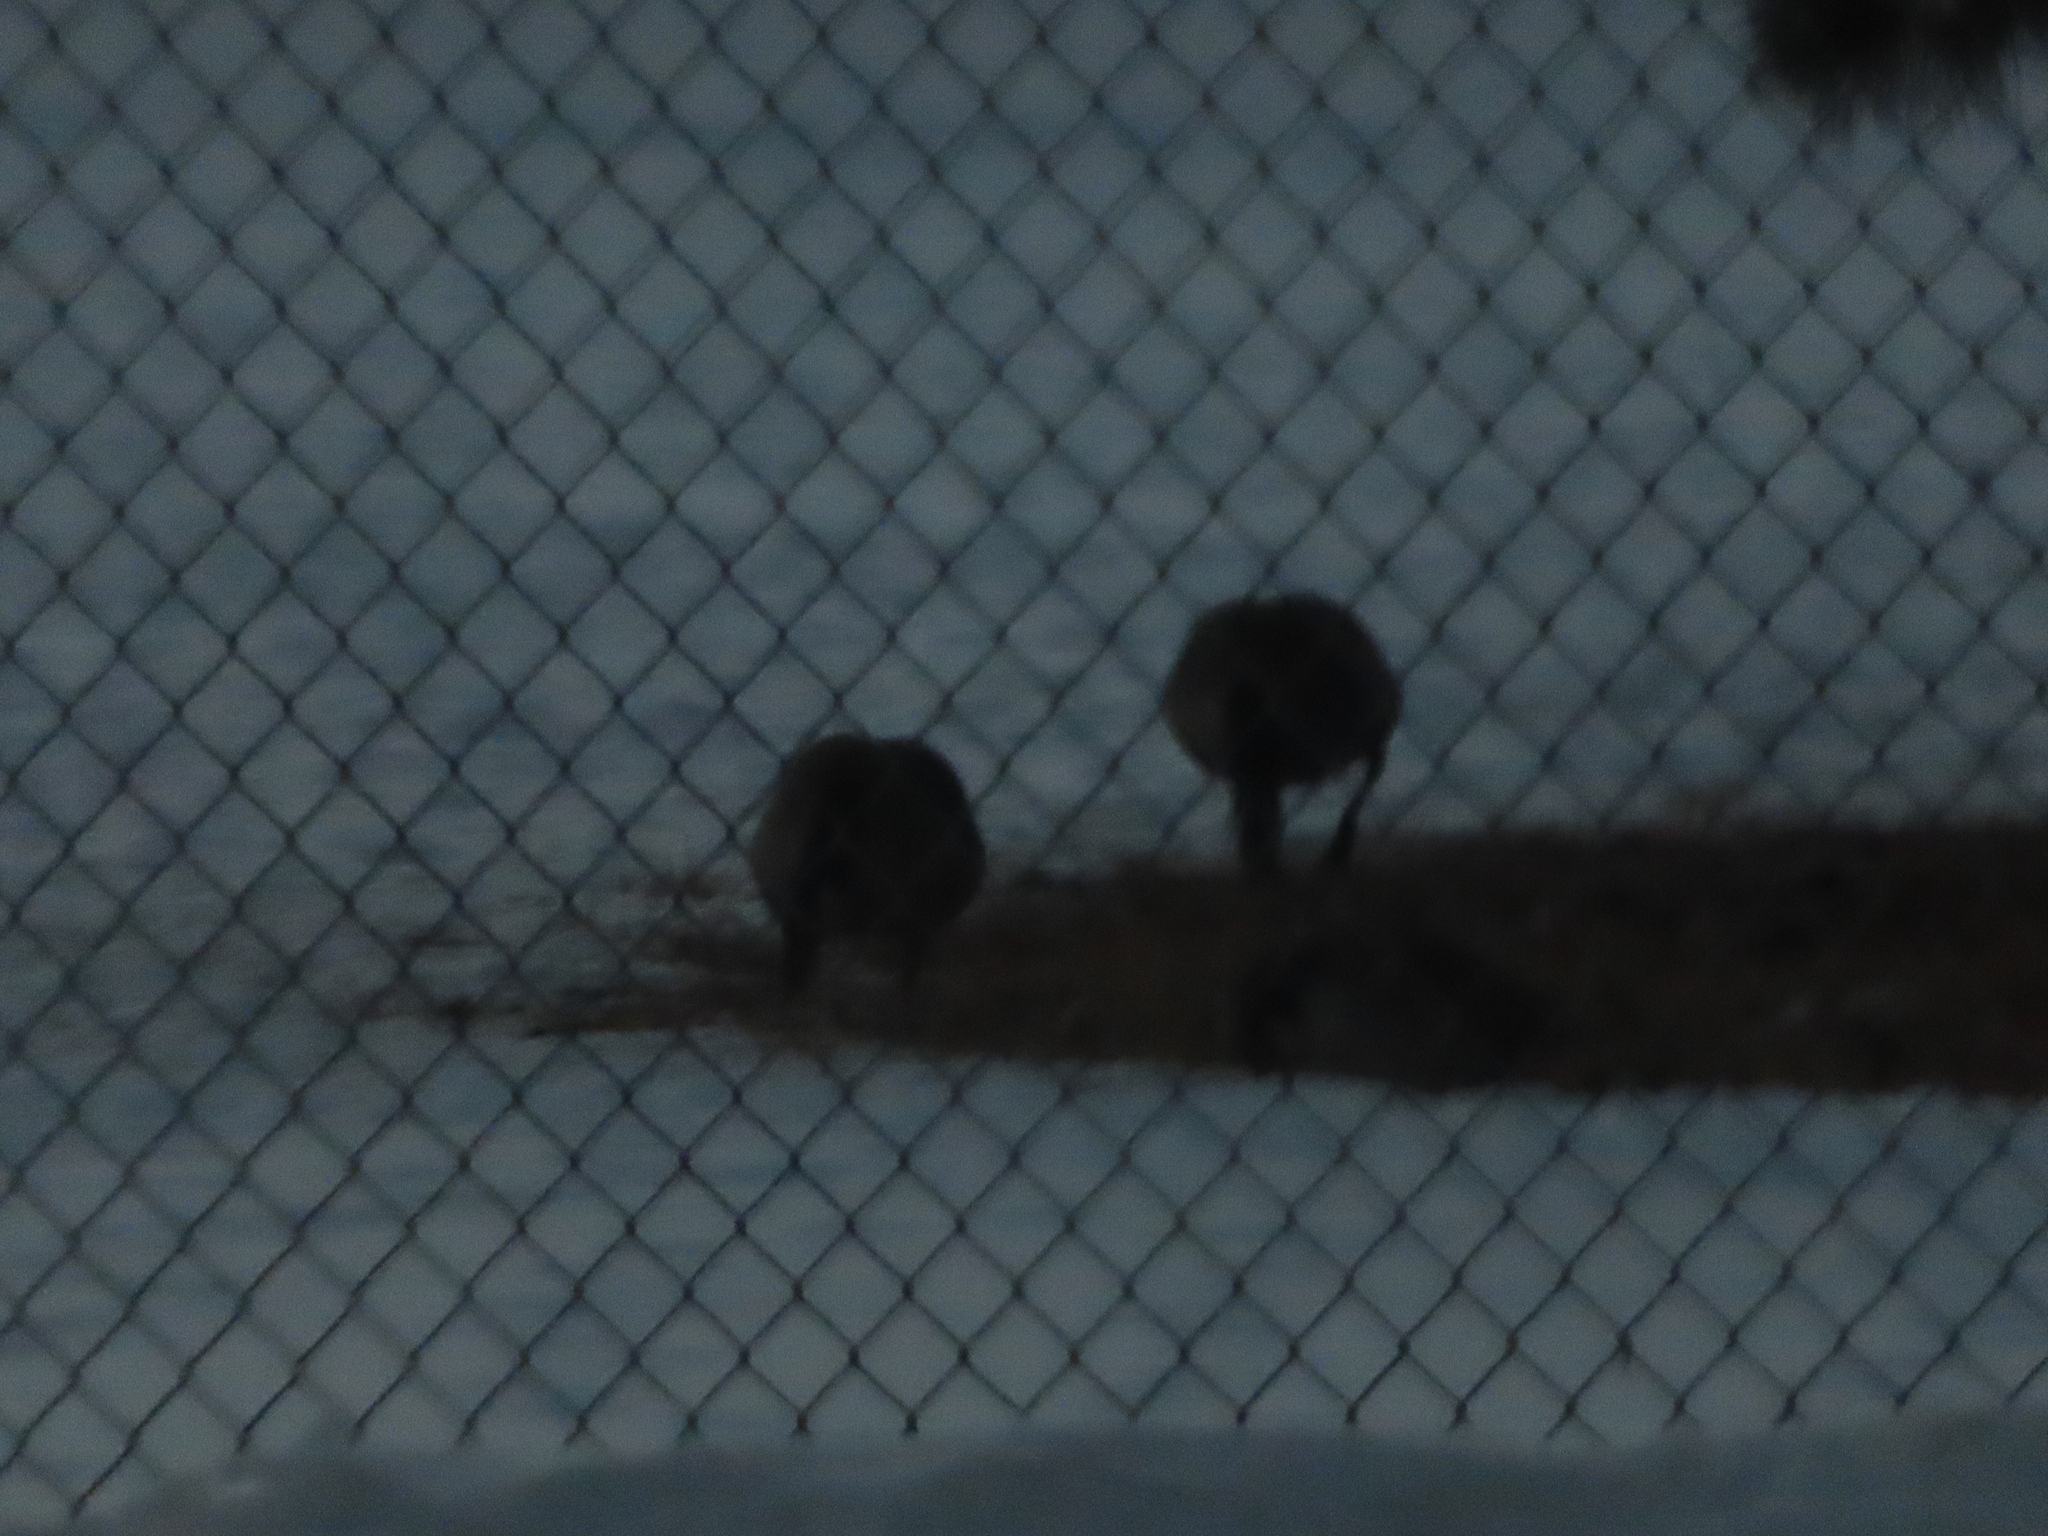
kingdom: Animalia
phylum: Chordata
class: Aves
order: Anseriformes
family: Anatidae
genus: Branta
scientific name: Branta canadensis
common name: Canada goose
